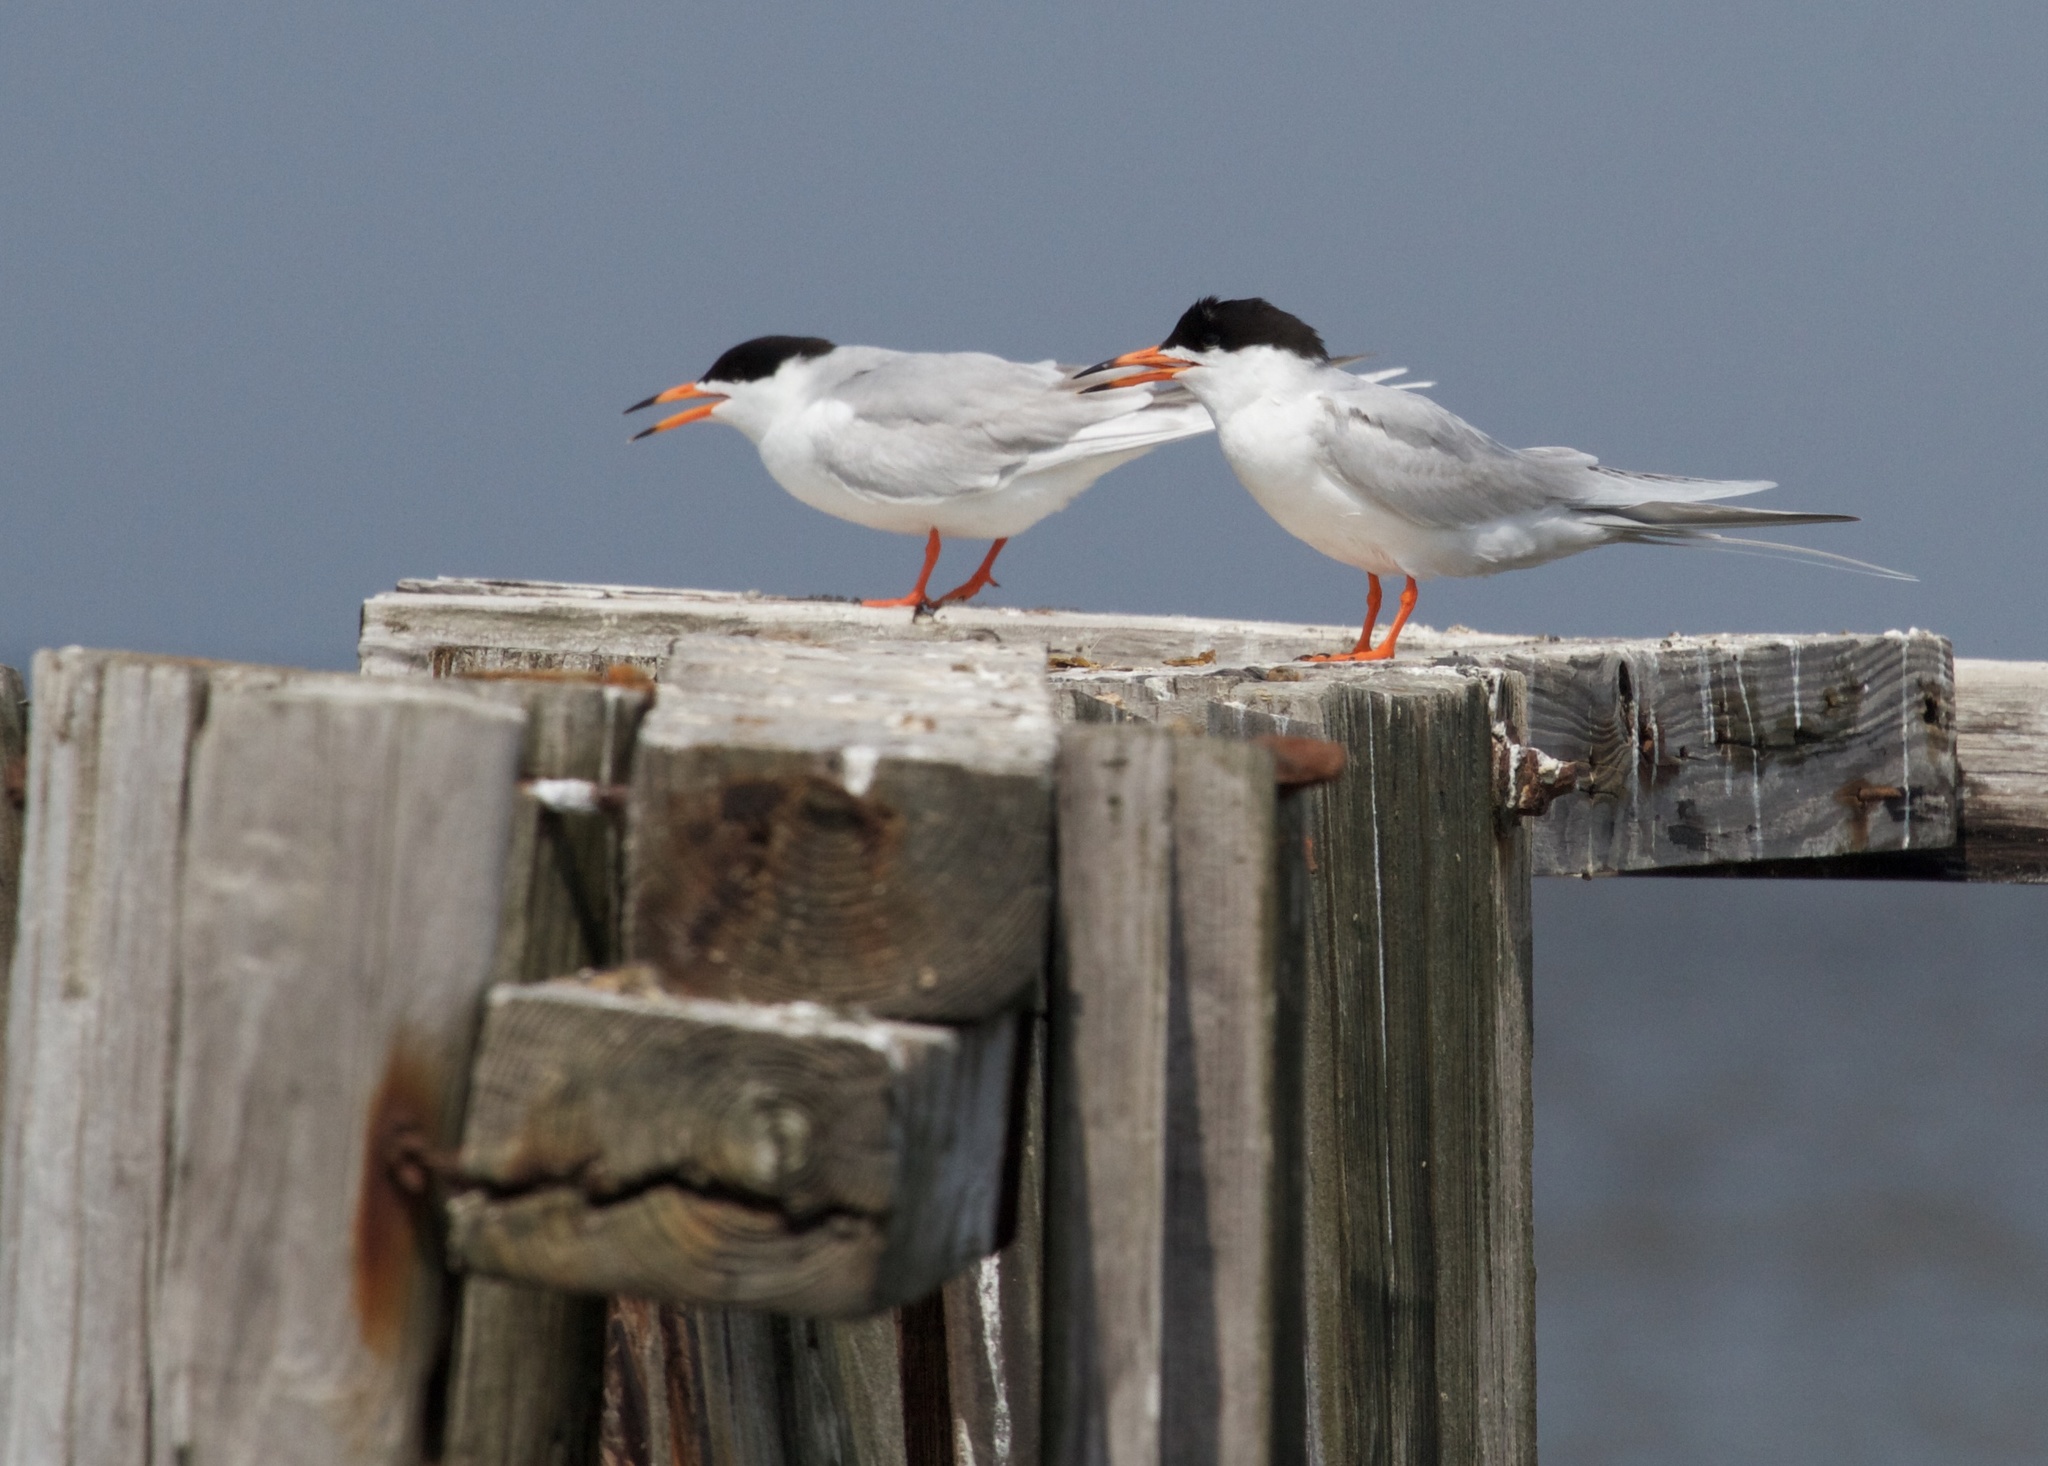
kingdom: Animalia
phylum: Chordata
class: Aves
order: Charadriiformes
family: Laridae
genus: Sterna
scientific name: Sterna forsteri
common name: Forster's tern
